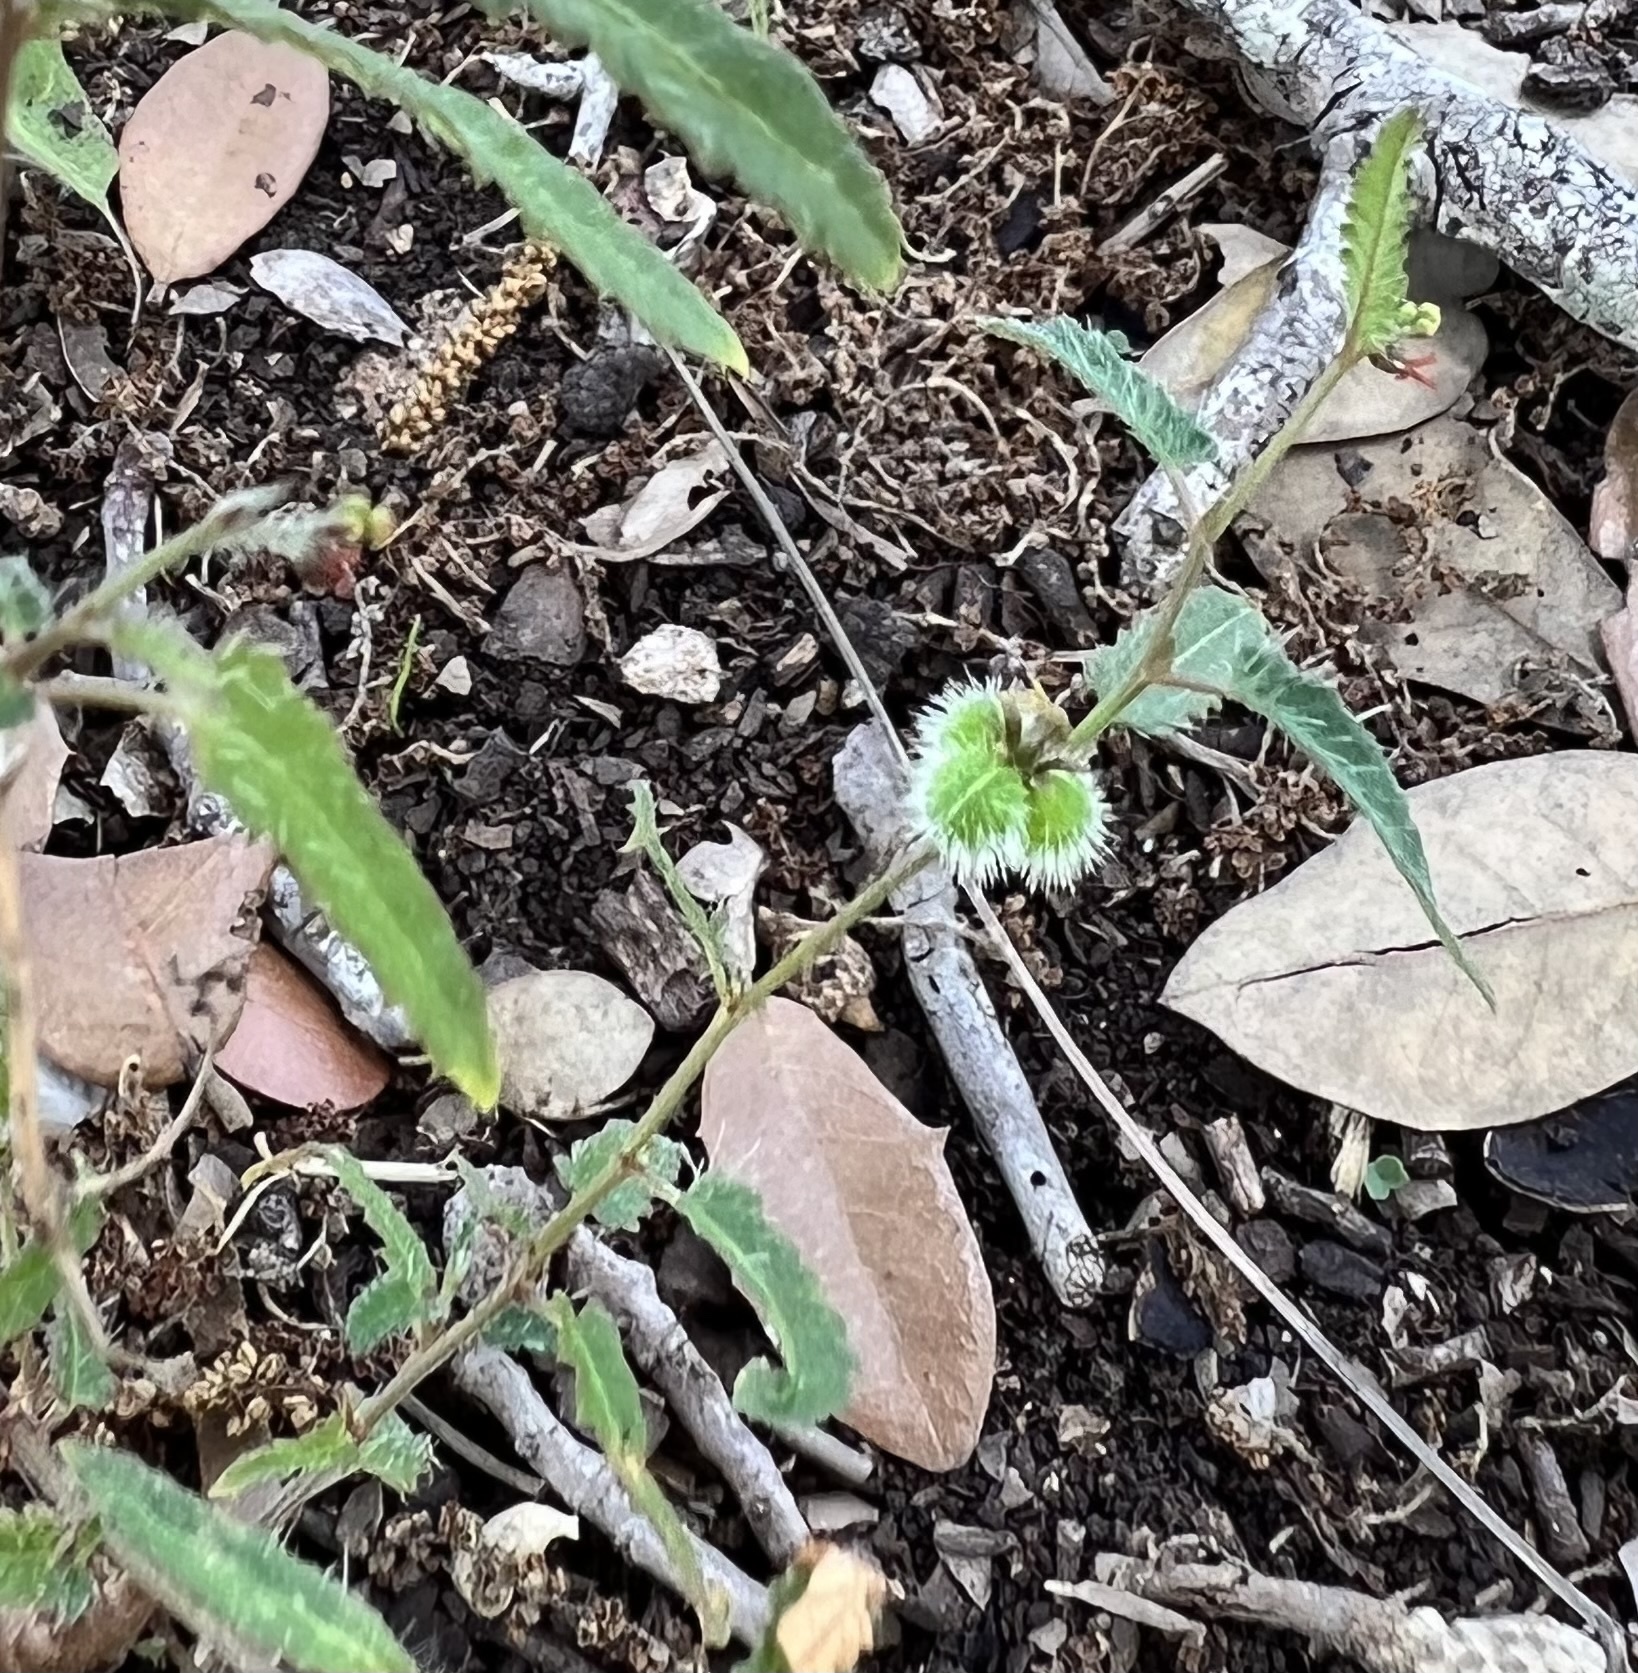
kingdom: Plantae
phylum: Tracheophyta
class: Magnoliopsida
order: Malpighiales
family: Euphorbiaceae
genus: Tragia
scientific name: Tragia ramosa
